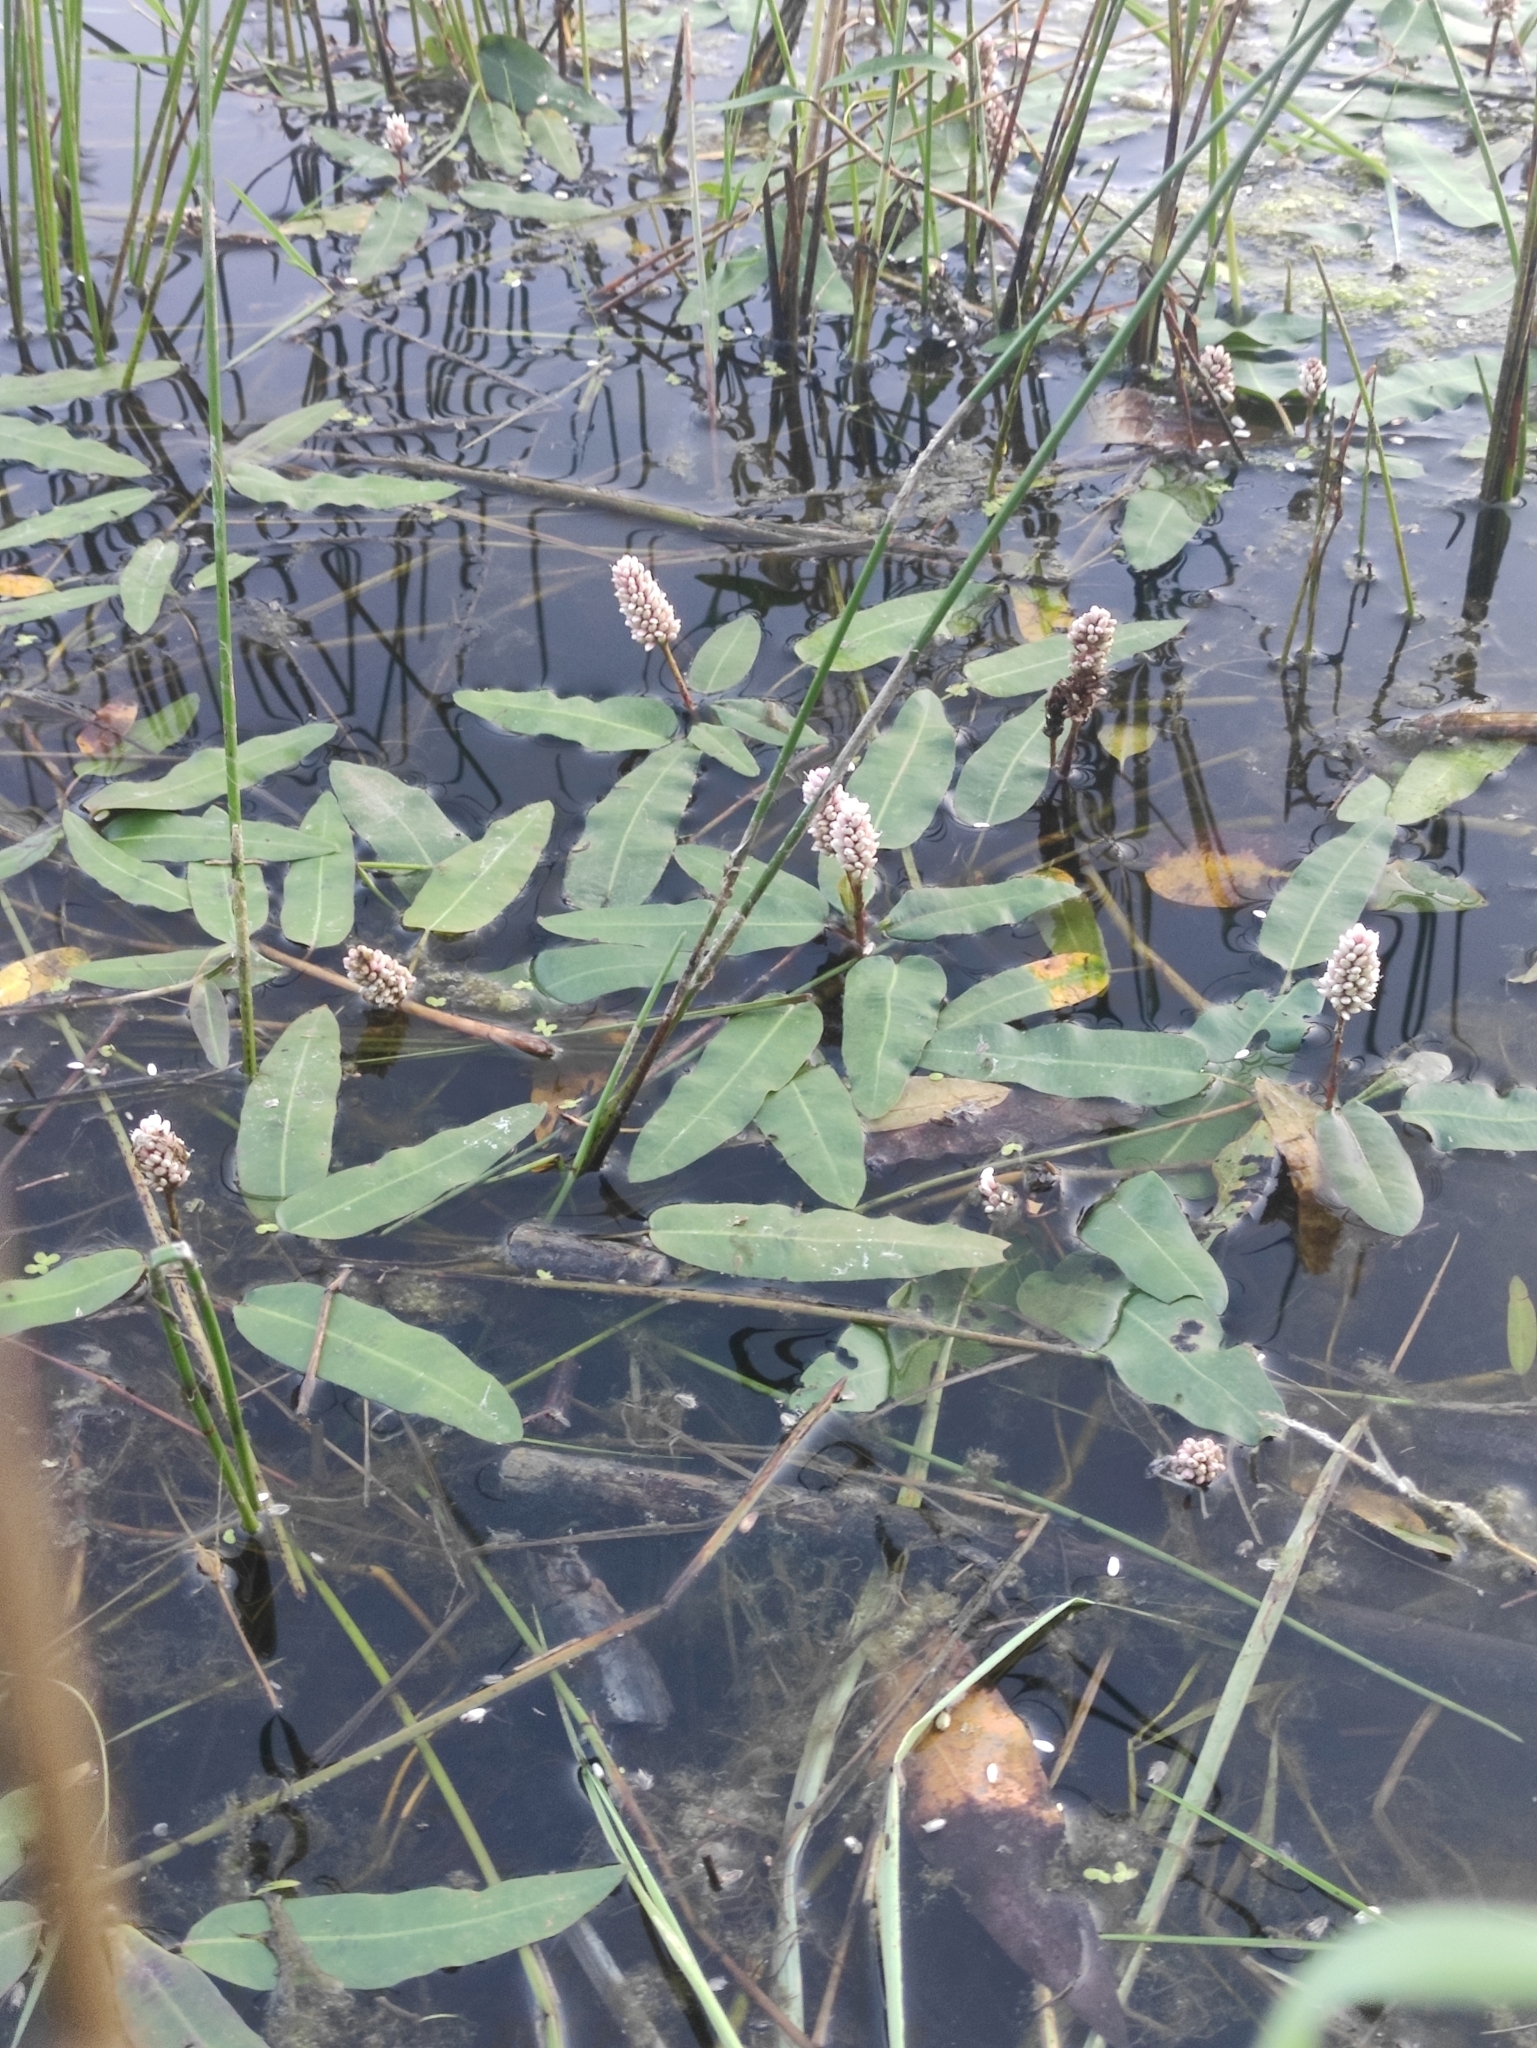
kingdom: Plantae
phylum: Tracheophyta
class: Magnoliopsida
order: Caryophyllales
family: Polygonaceae
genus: Persicaria
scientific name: Persicaria amphibia
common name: Amphibious bistort
